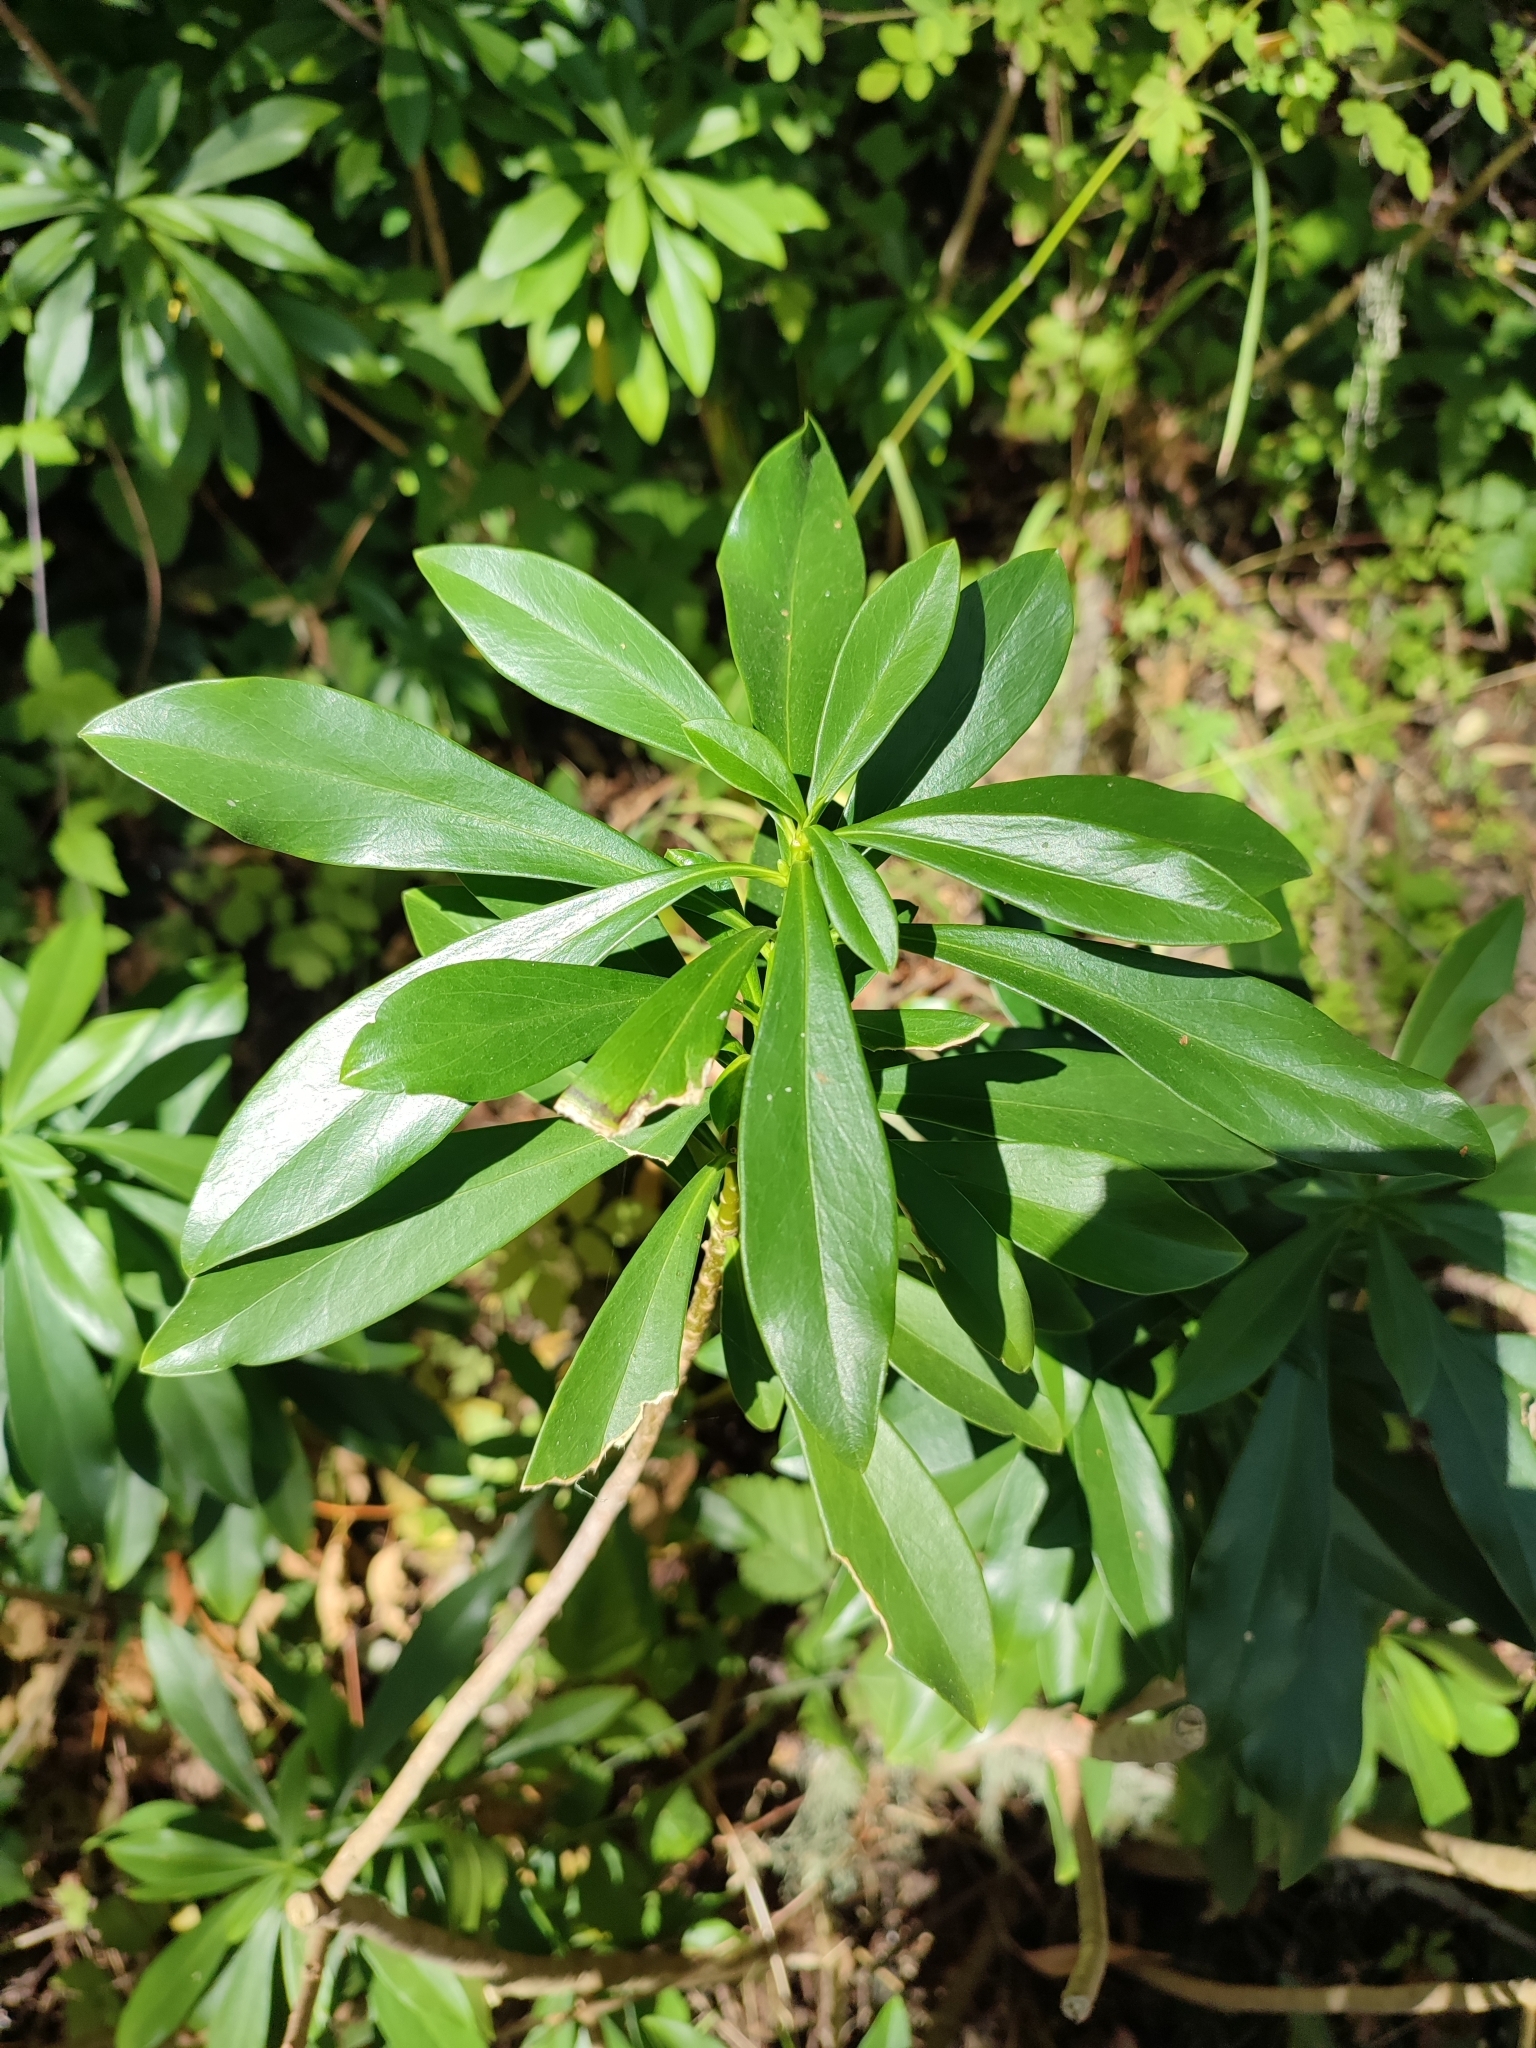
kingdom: Plantae
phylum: Tracheophyta
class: Magnoliopsida
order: Malvales
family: Thymelaeaceae
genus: Daphne
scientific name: Daphne laureola
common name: Spurge-laurel
